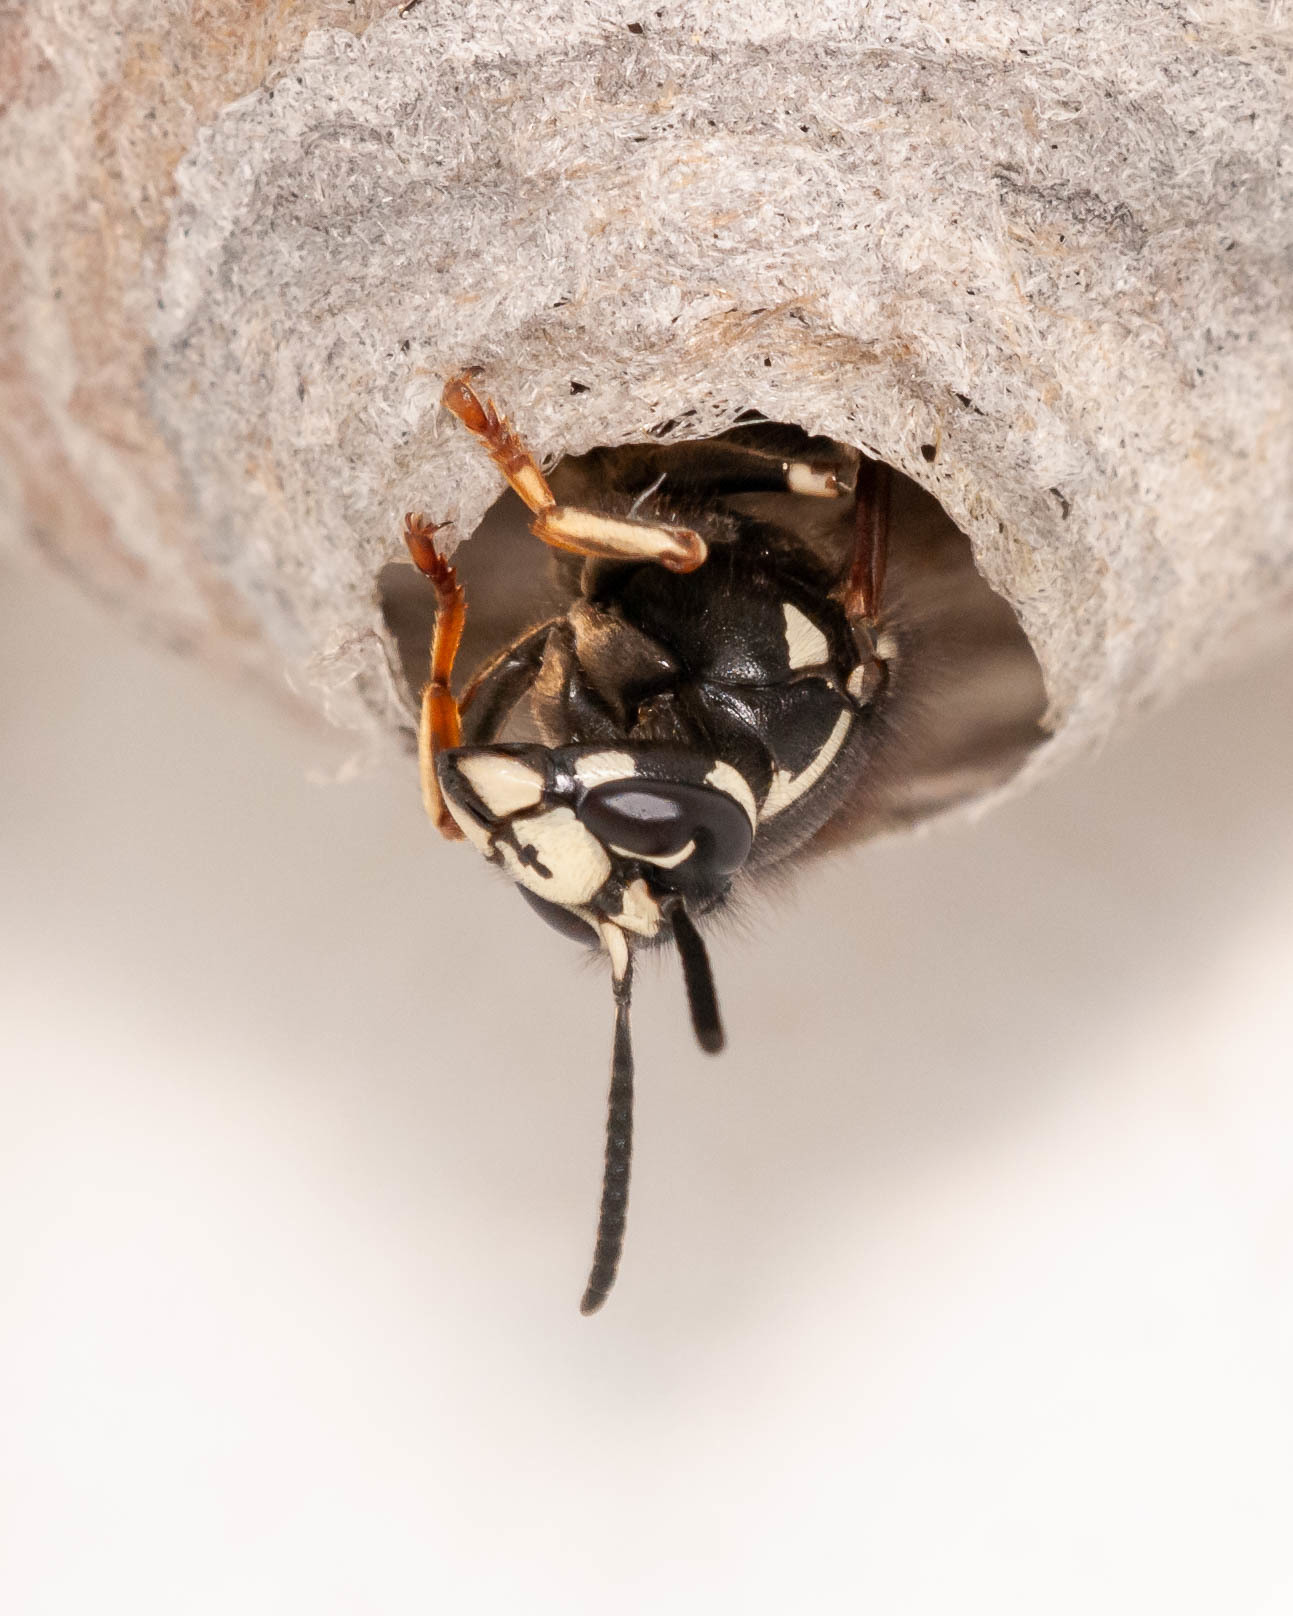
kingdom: Animalia
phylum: Arthropoda
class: Insecta
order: Hymenoptera
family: Vespidae
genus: Dolichovespula
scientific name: Dolichovespula adulterina
